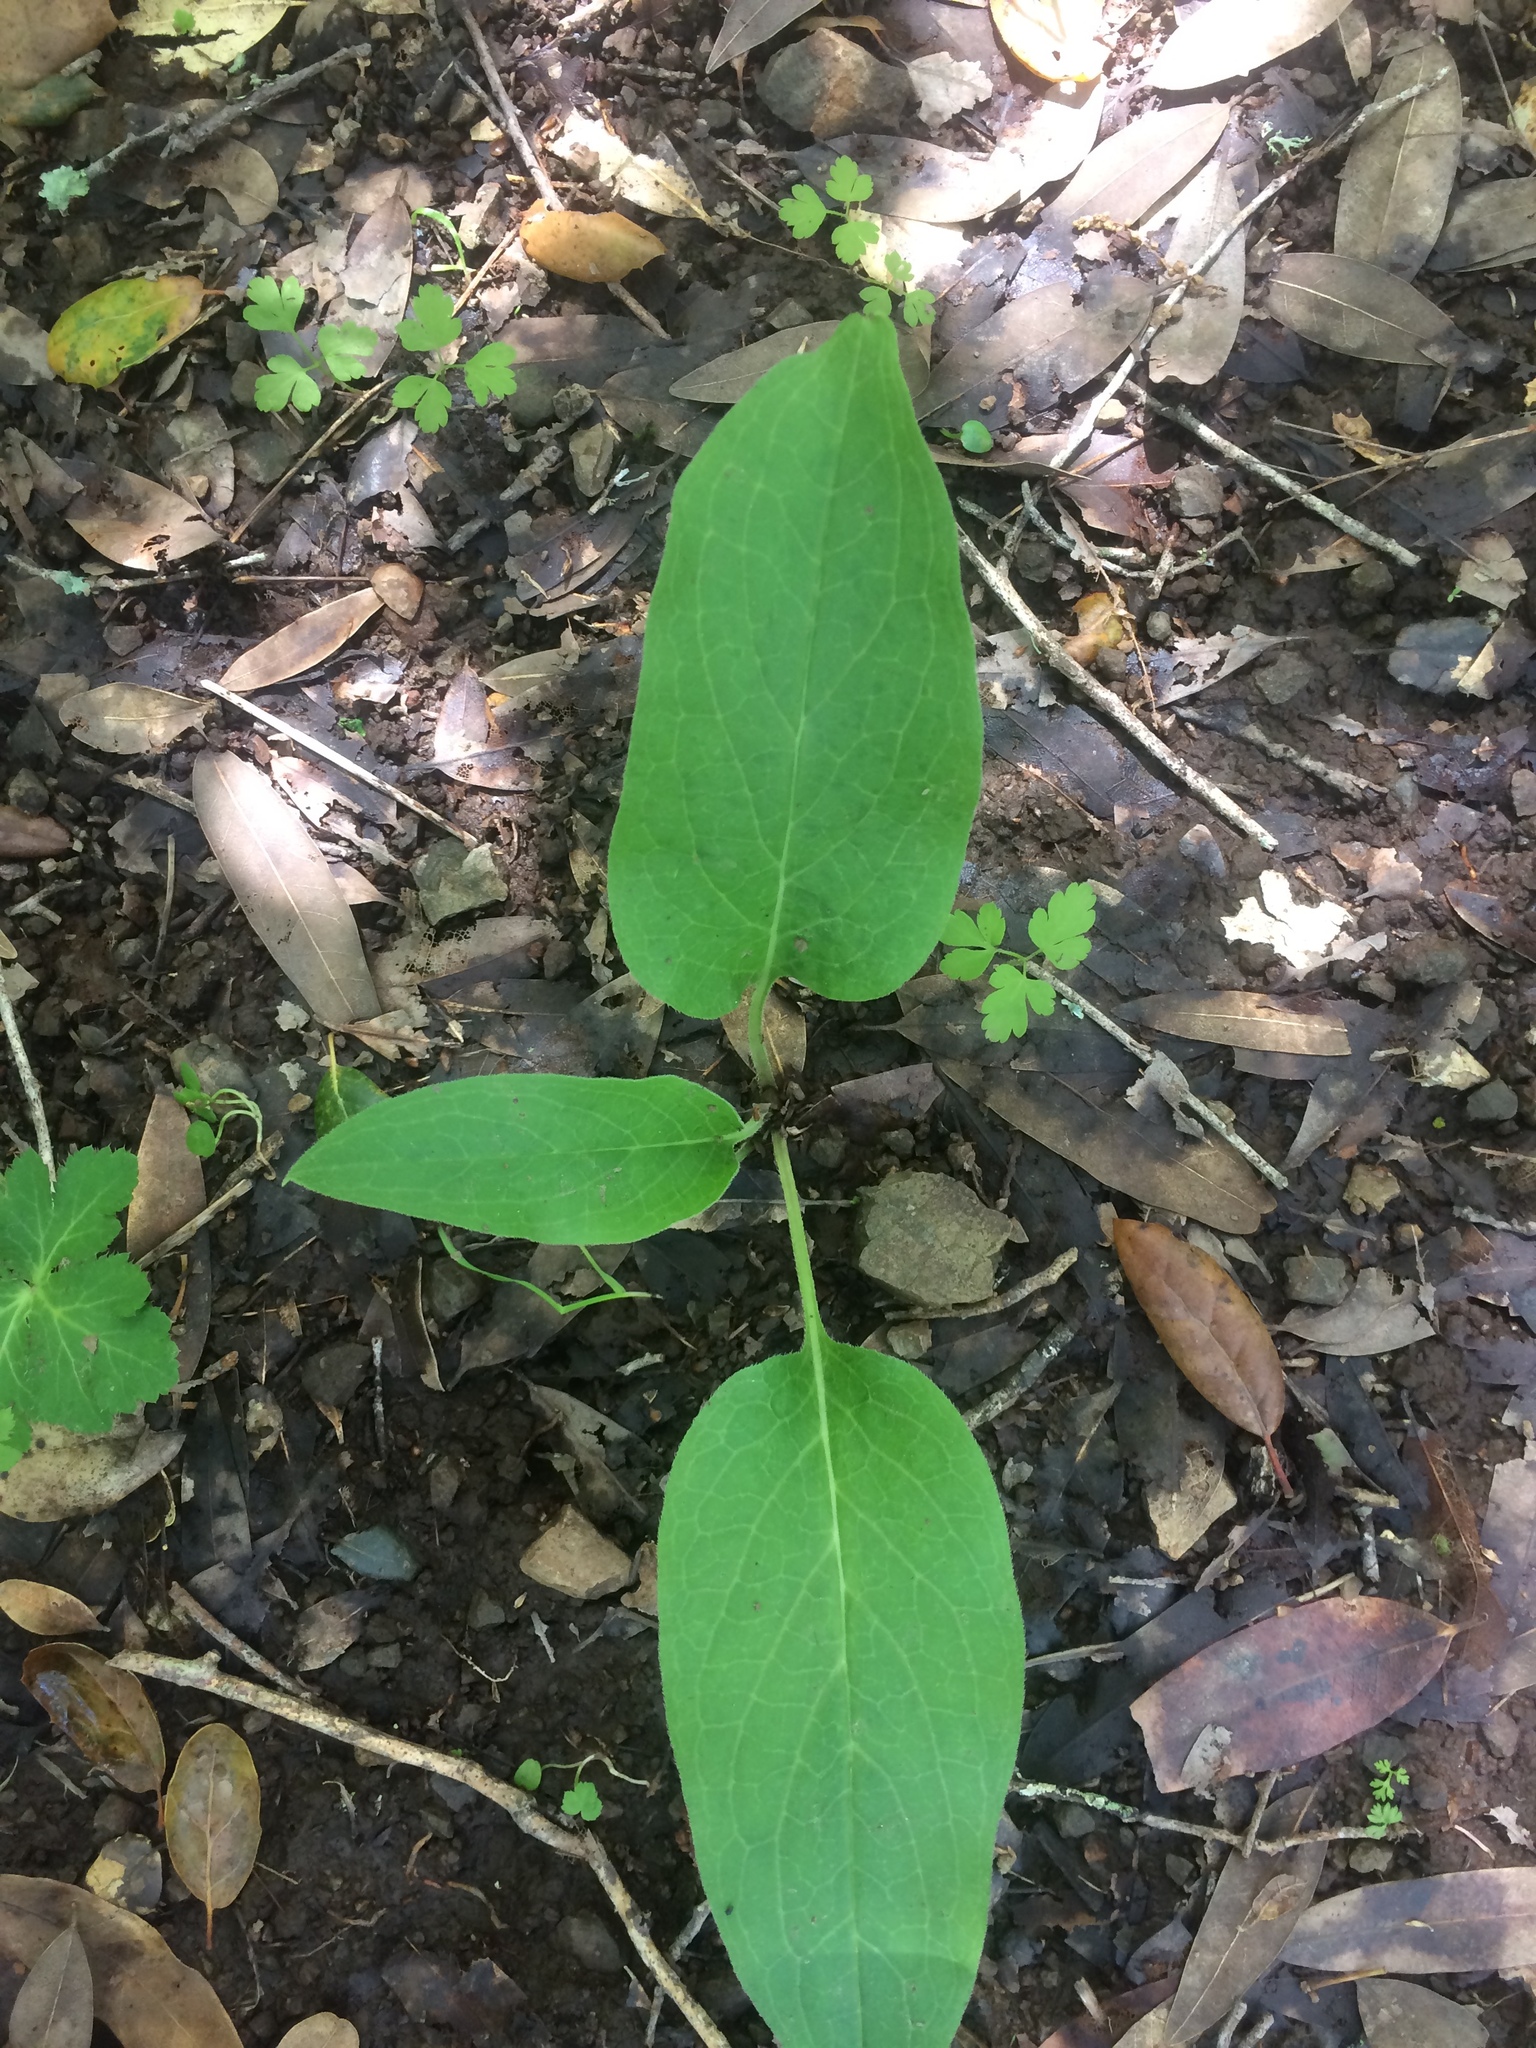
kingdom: Plantae
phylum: Tracheophyta
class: Magnoliopsida
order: Boraginales
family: Boraginaceae
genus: Adelinia
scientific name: Adelinia grande
